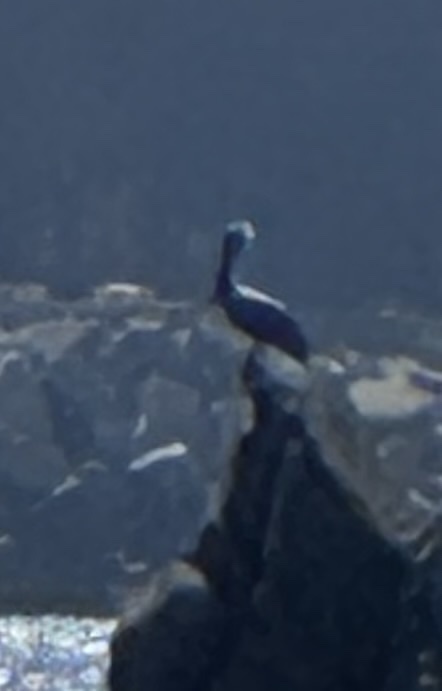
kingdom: Animalia
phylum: Chordata
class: Aves
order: Pelecaniformes
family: Pelecanidae
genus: Pelecanus
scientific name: Pelecanus occidentalis
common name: Brown pelican
